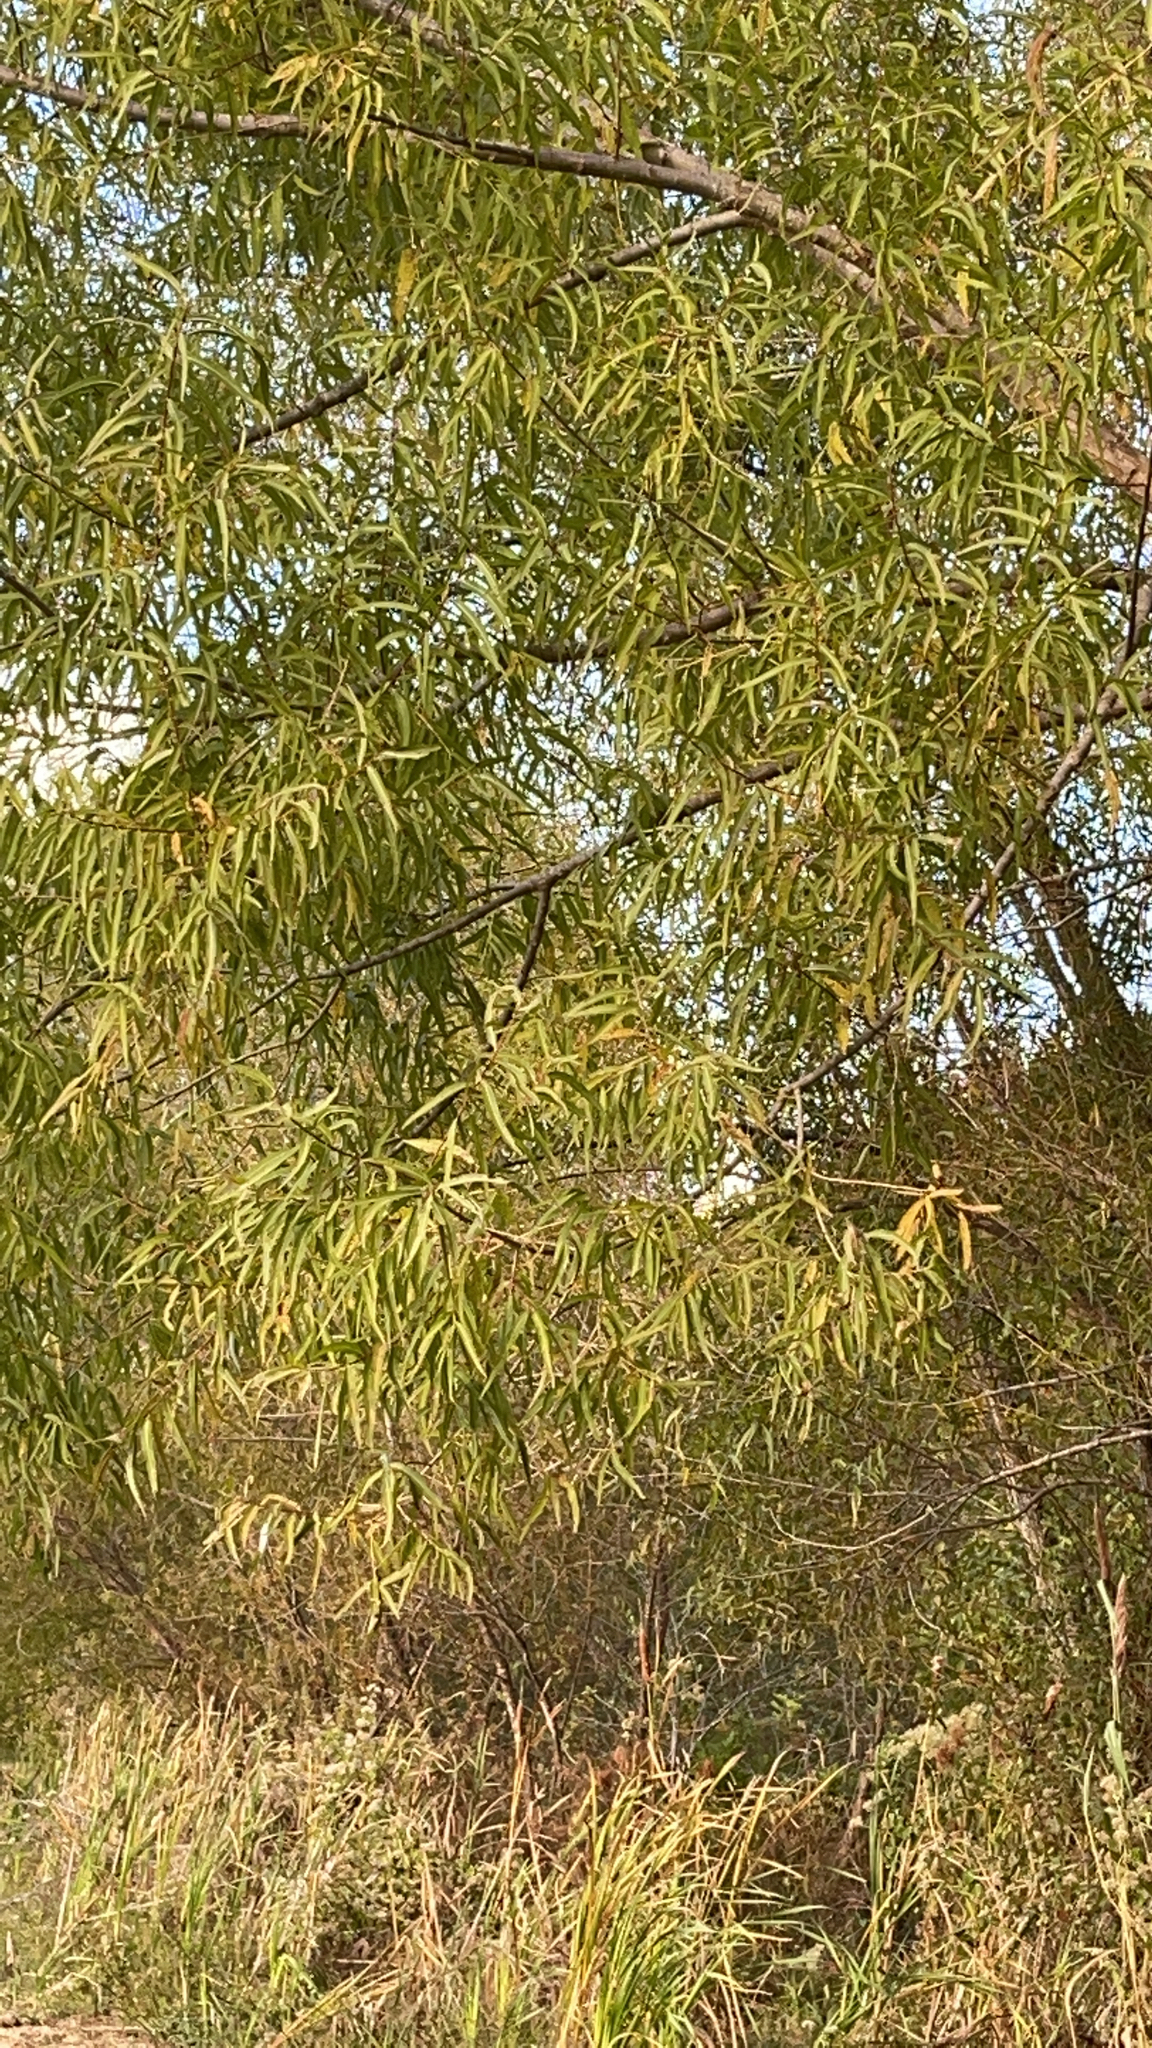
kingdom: Plantae
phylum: Tracheophyta
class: Magnoliopsida
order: Malpighiales
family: Salicaceae
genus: Salix
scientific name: Salix nigra
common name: Black willow
